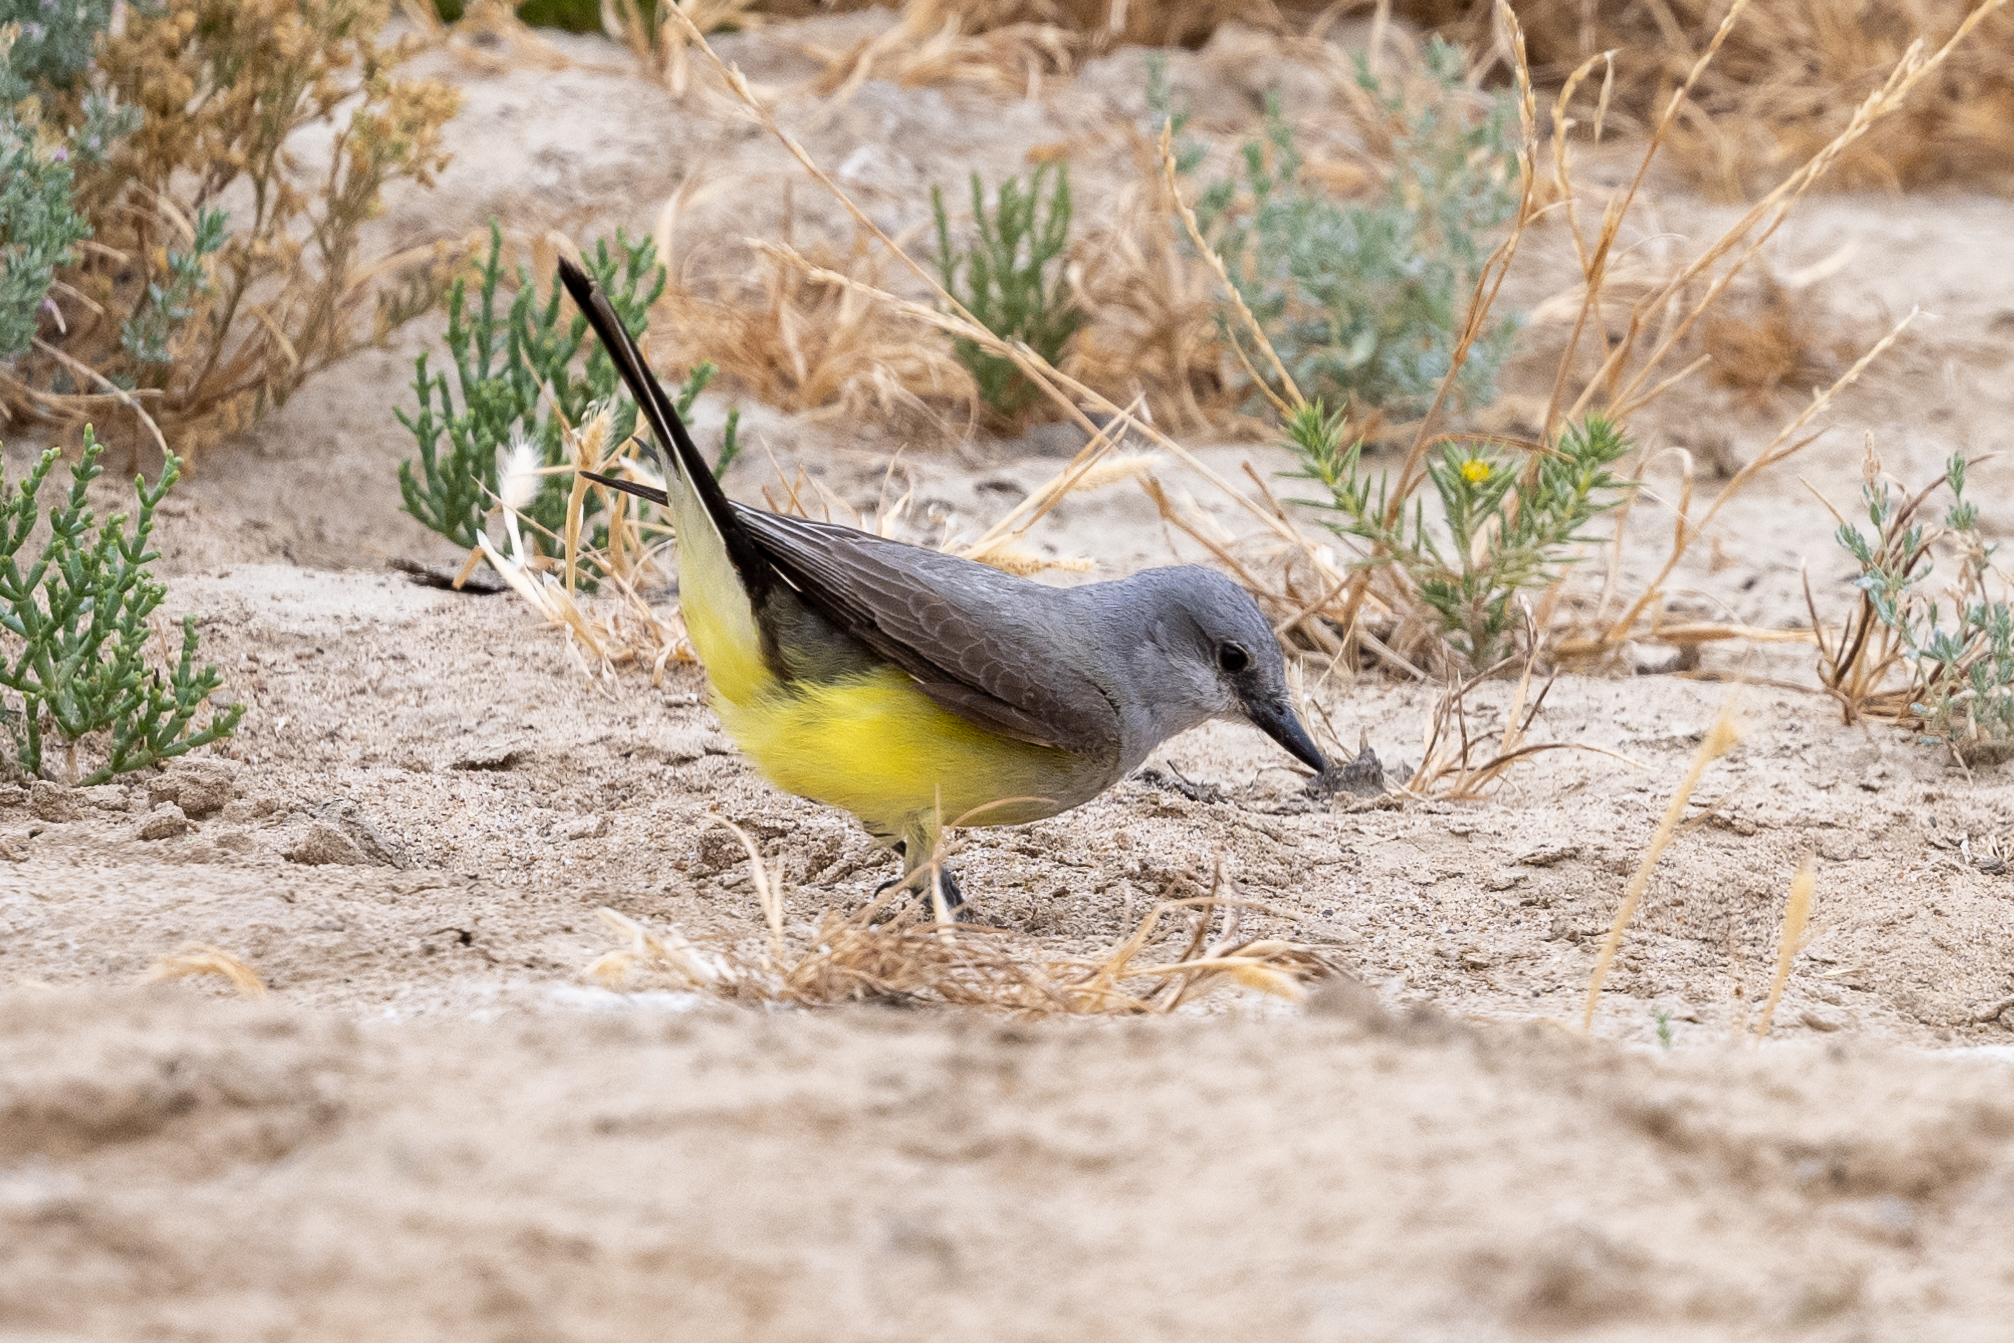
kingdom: Animalia
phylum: Chordata
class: Aves
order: Passeriformes
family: Tyrannidae
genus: Tyrannus
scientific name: Tyrannus verticalis
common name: Western kingbird
